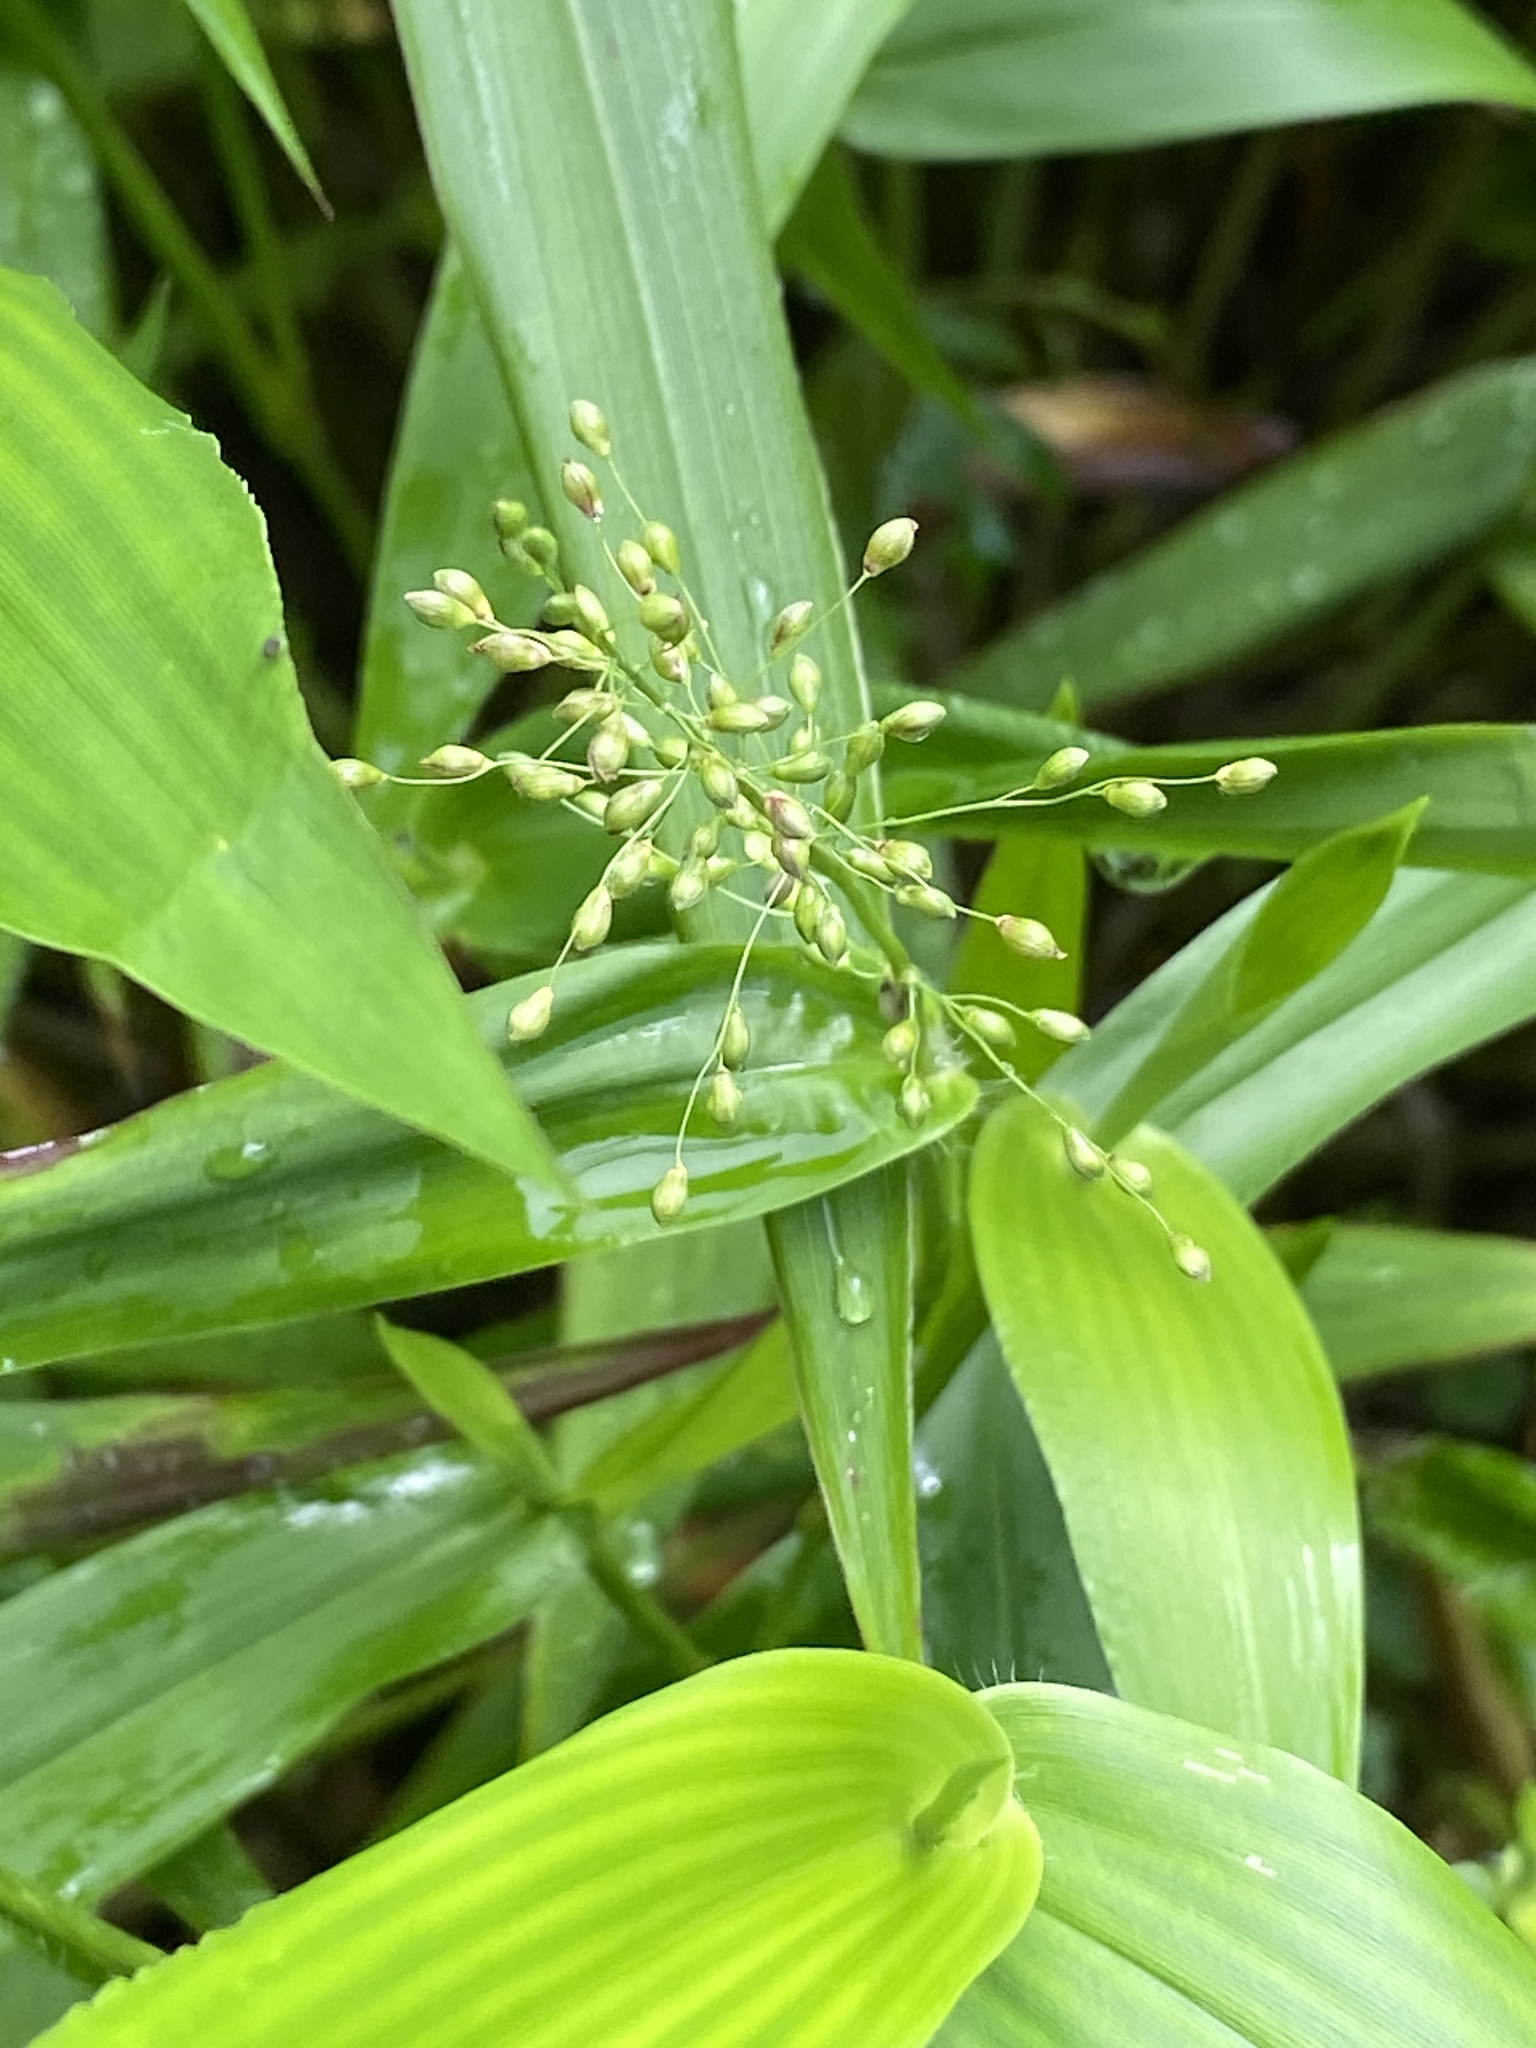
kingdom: Plantae
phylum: Tracheophyta
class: Liliopsida
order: Poales
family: Poaceae
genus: Dichanthelium
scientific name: Dichanthelium clandestinum
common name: Deer-tongue grass
